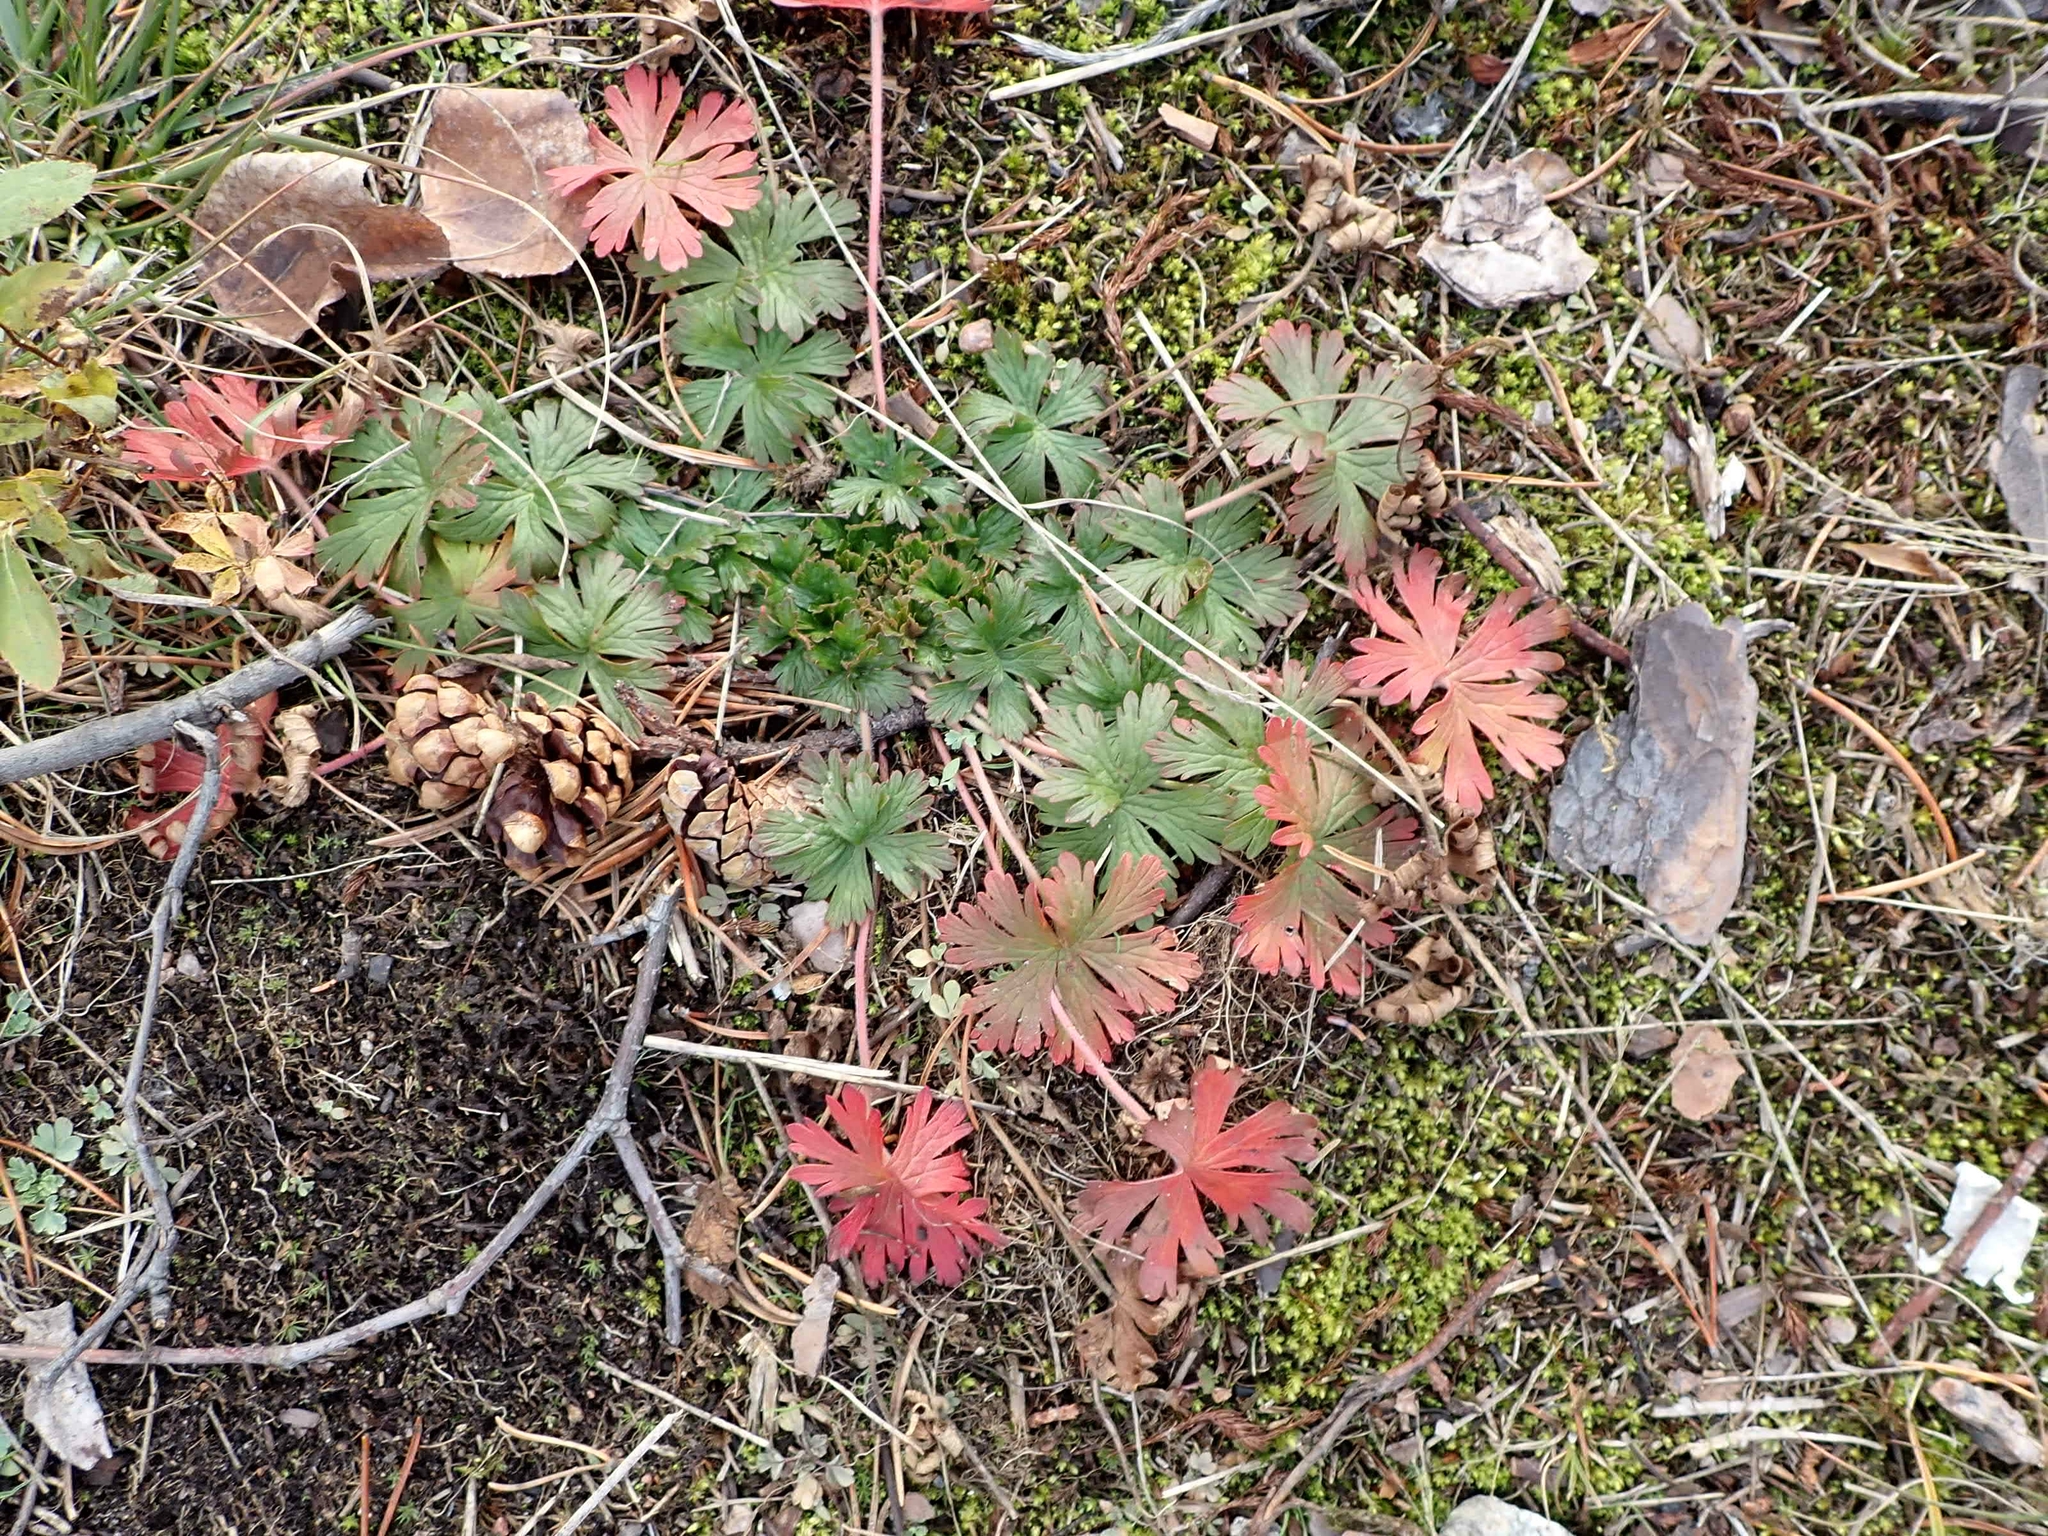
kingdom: Plantae
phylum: Tracheophyta
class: Magnoliopsida
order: Geraniales
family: Geraniaceae
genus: Geranium
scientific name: Geranium bicknellii
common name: Bicknell's cranesbill
